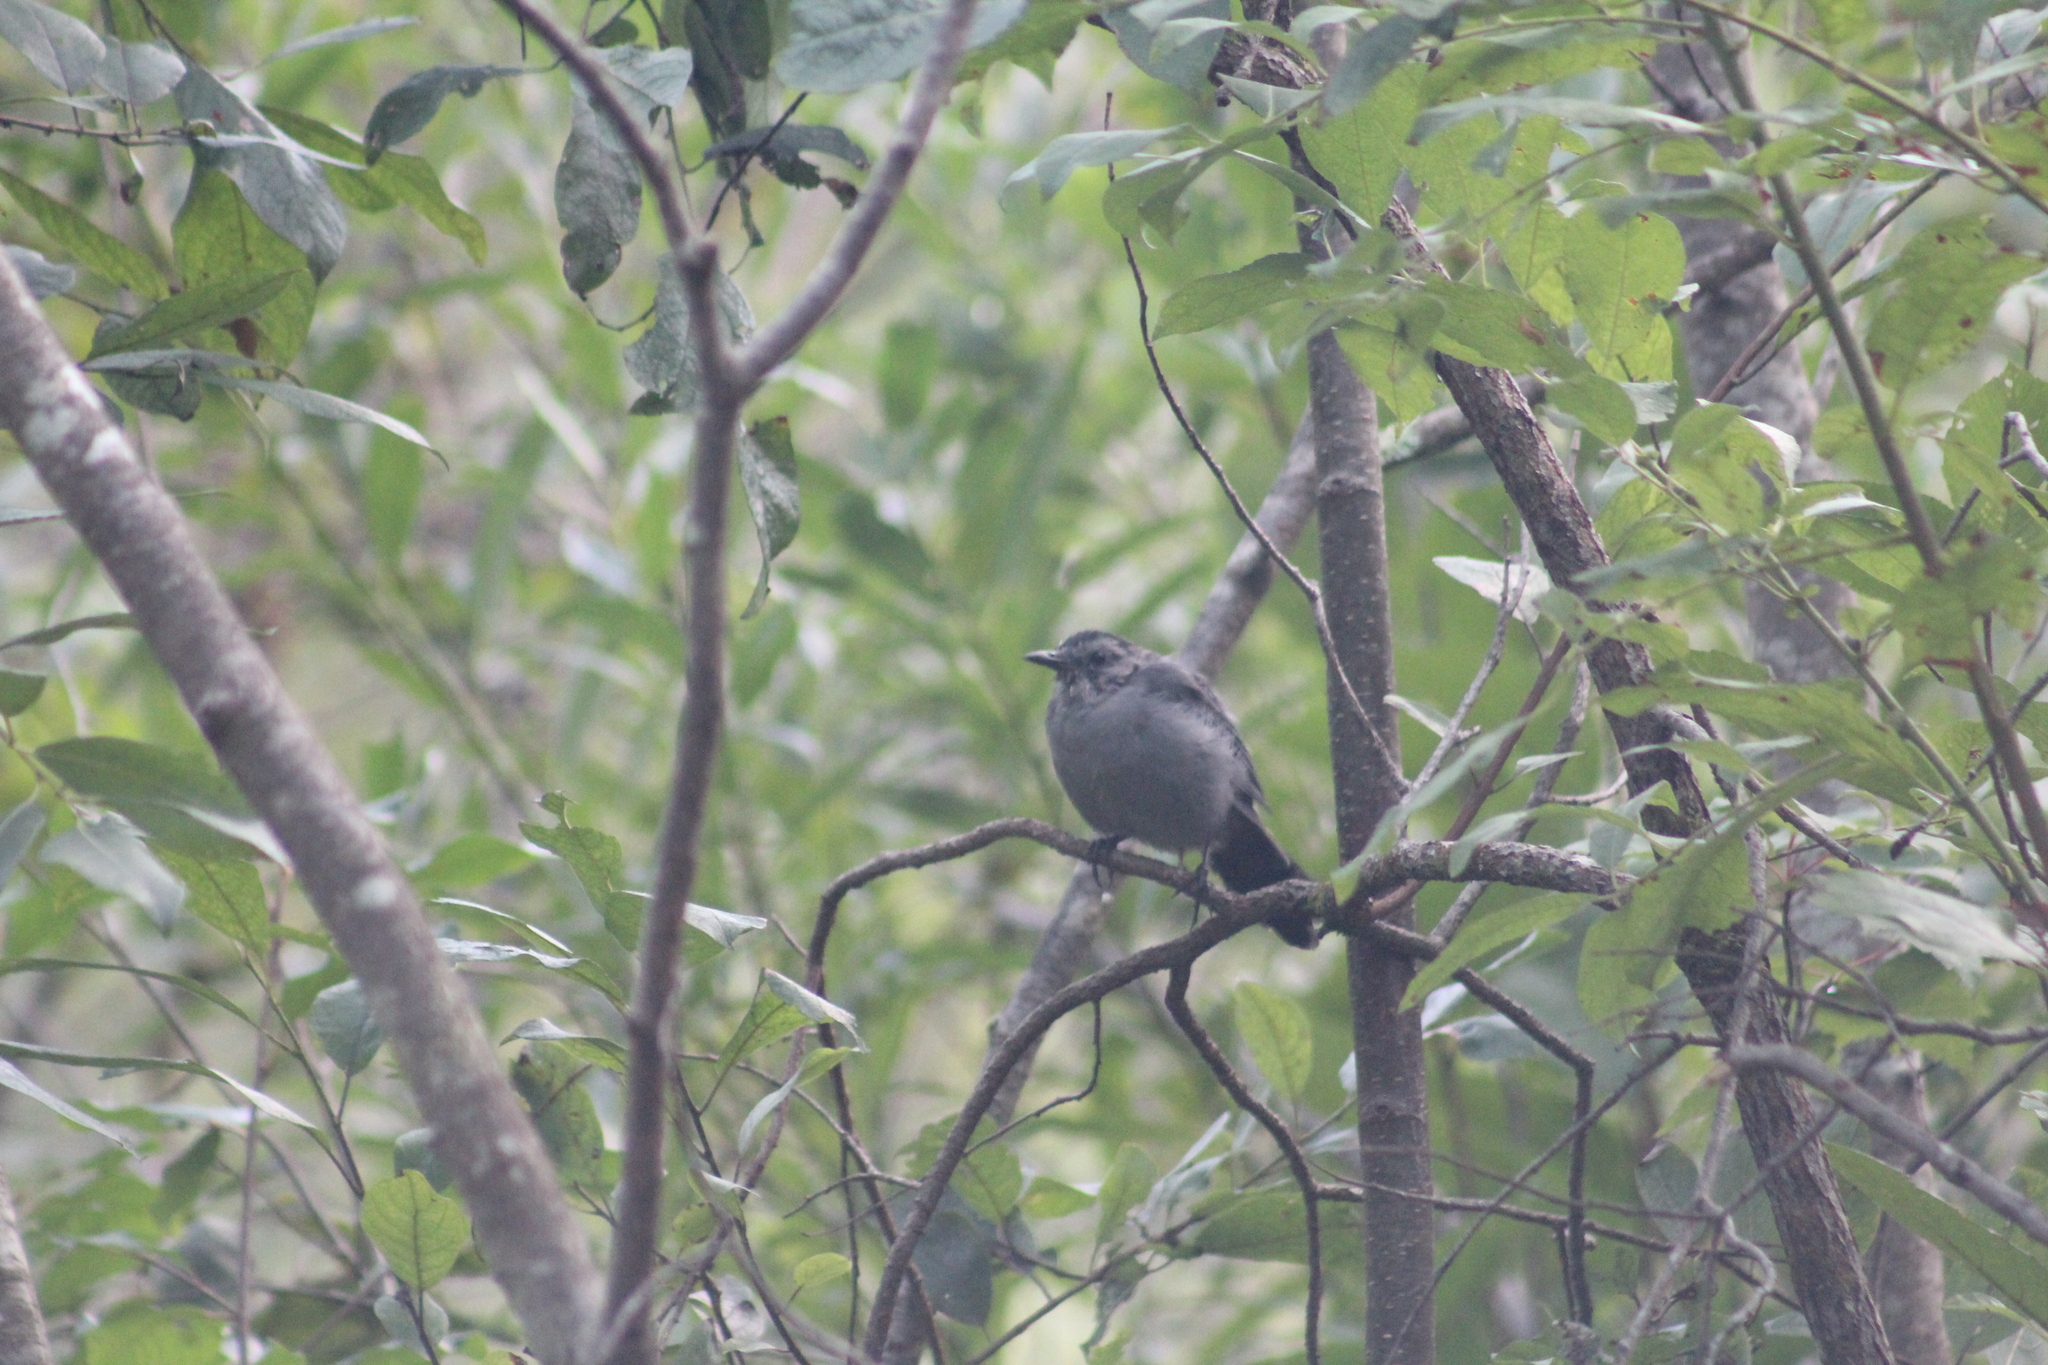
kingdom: Animalia
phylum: Chordata
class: Aves
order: Passeriformes
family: Mimidae
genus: Dumetella
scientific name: Dumetella carolinensis
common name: Gray catbird
